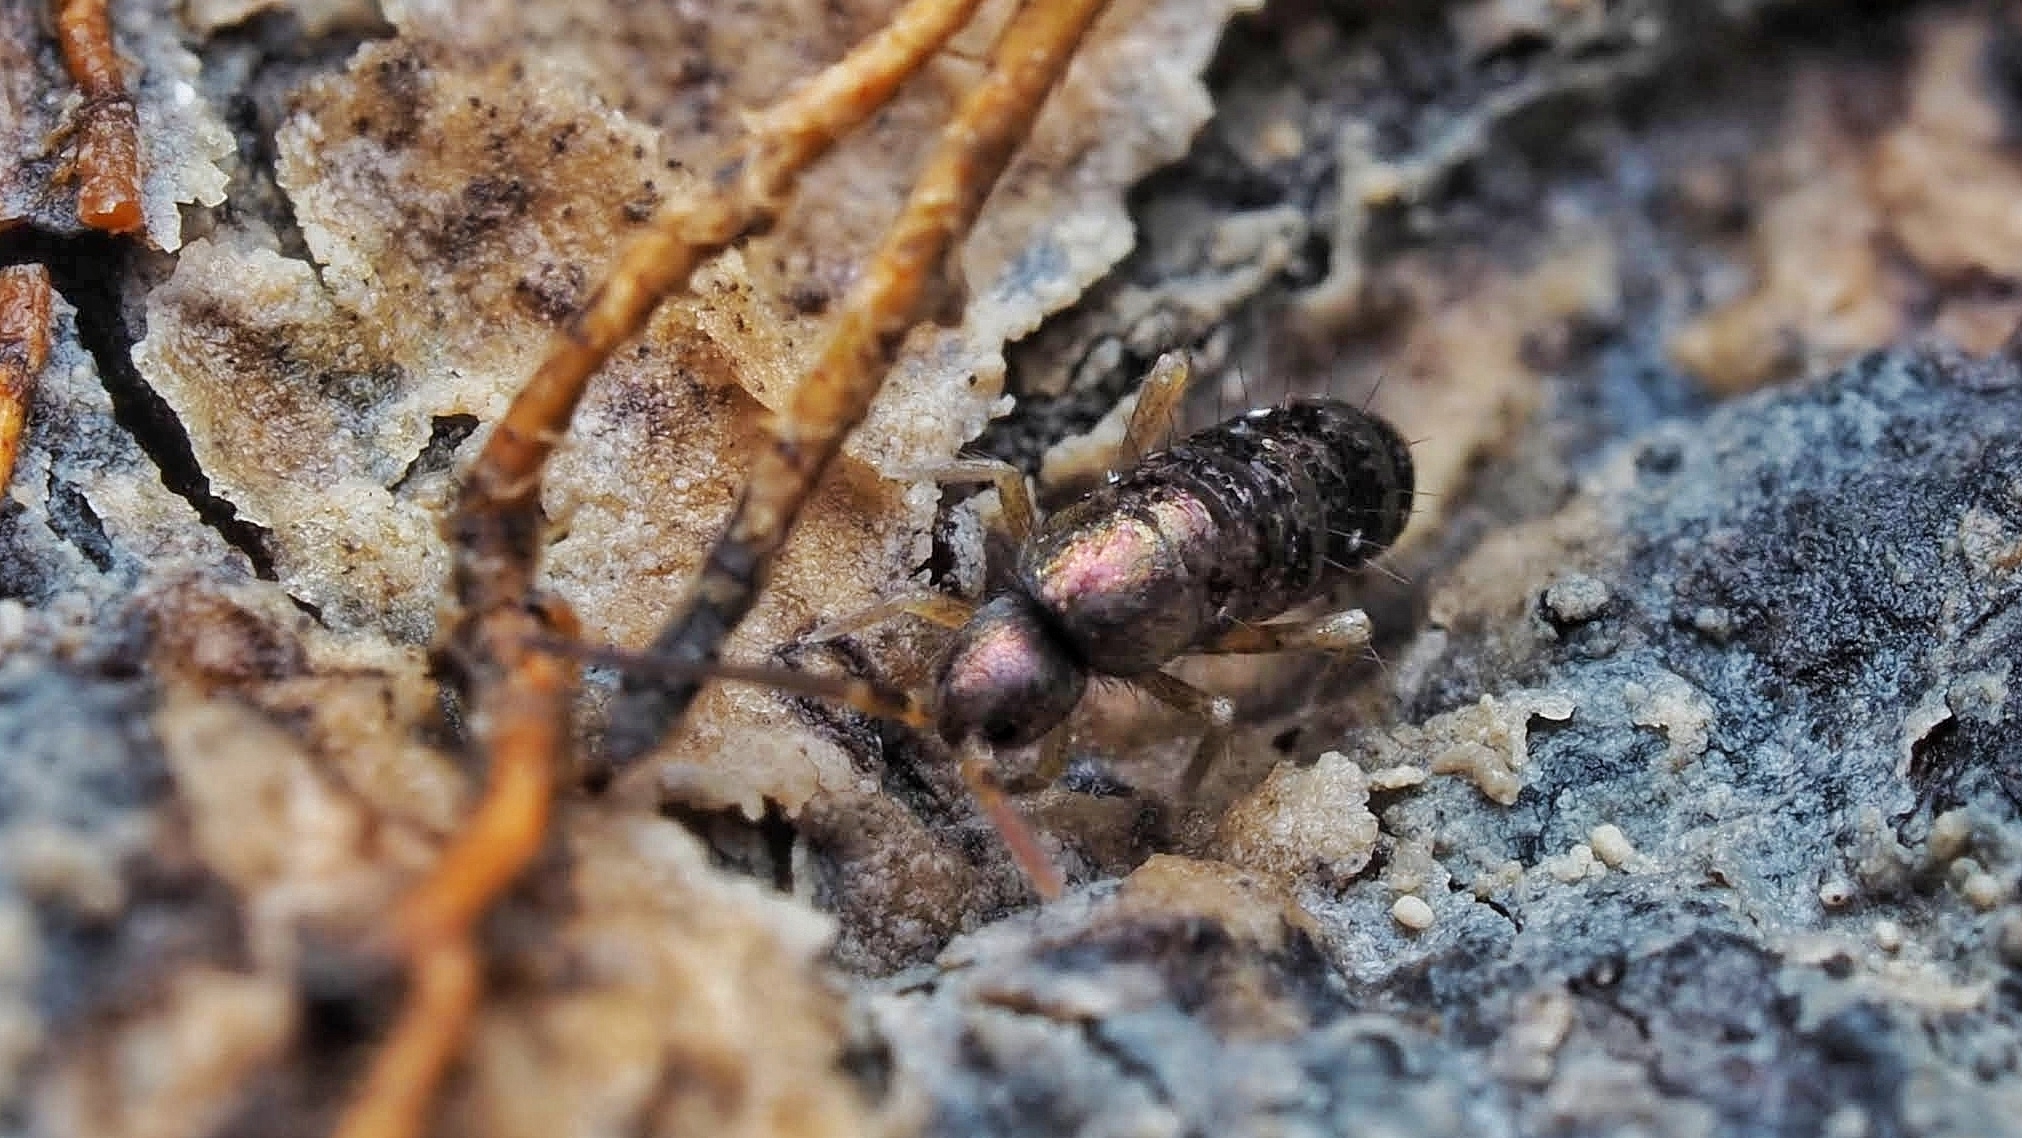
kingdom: Animalia
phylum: Arthropoda
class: Collembola
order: Entomobryomorpha
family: Tomoceridae
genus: Tomocerus
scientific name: Tomocerus vulgaris
